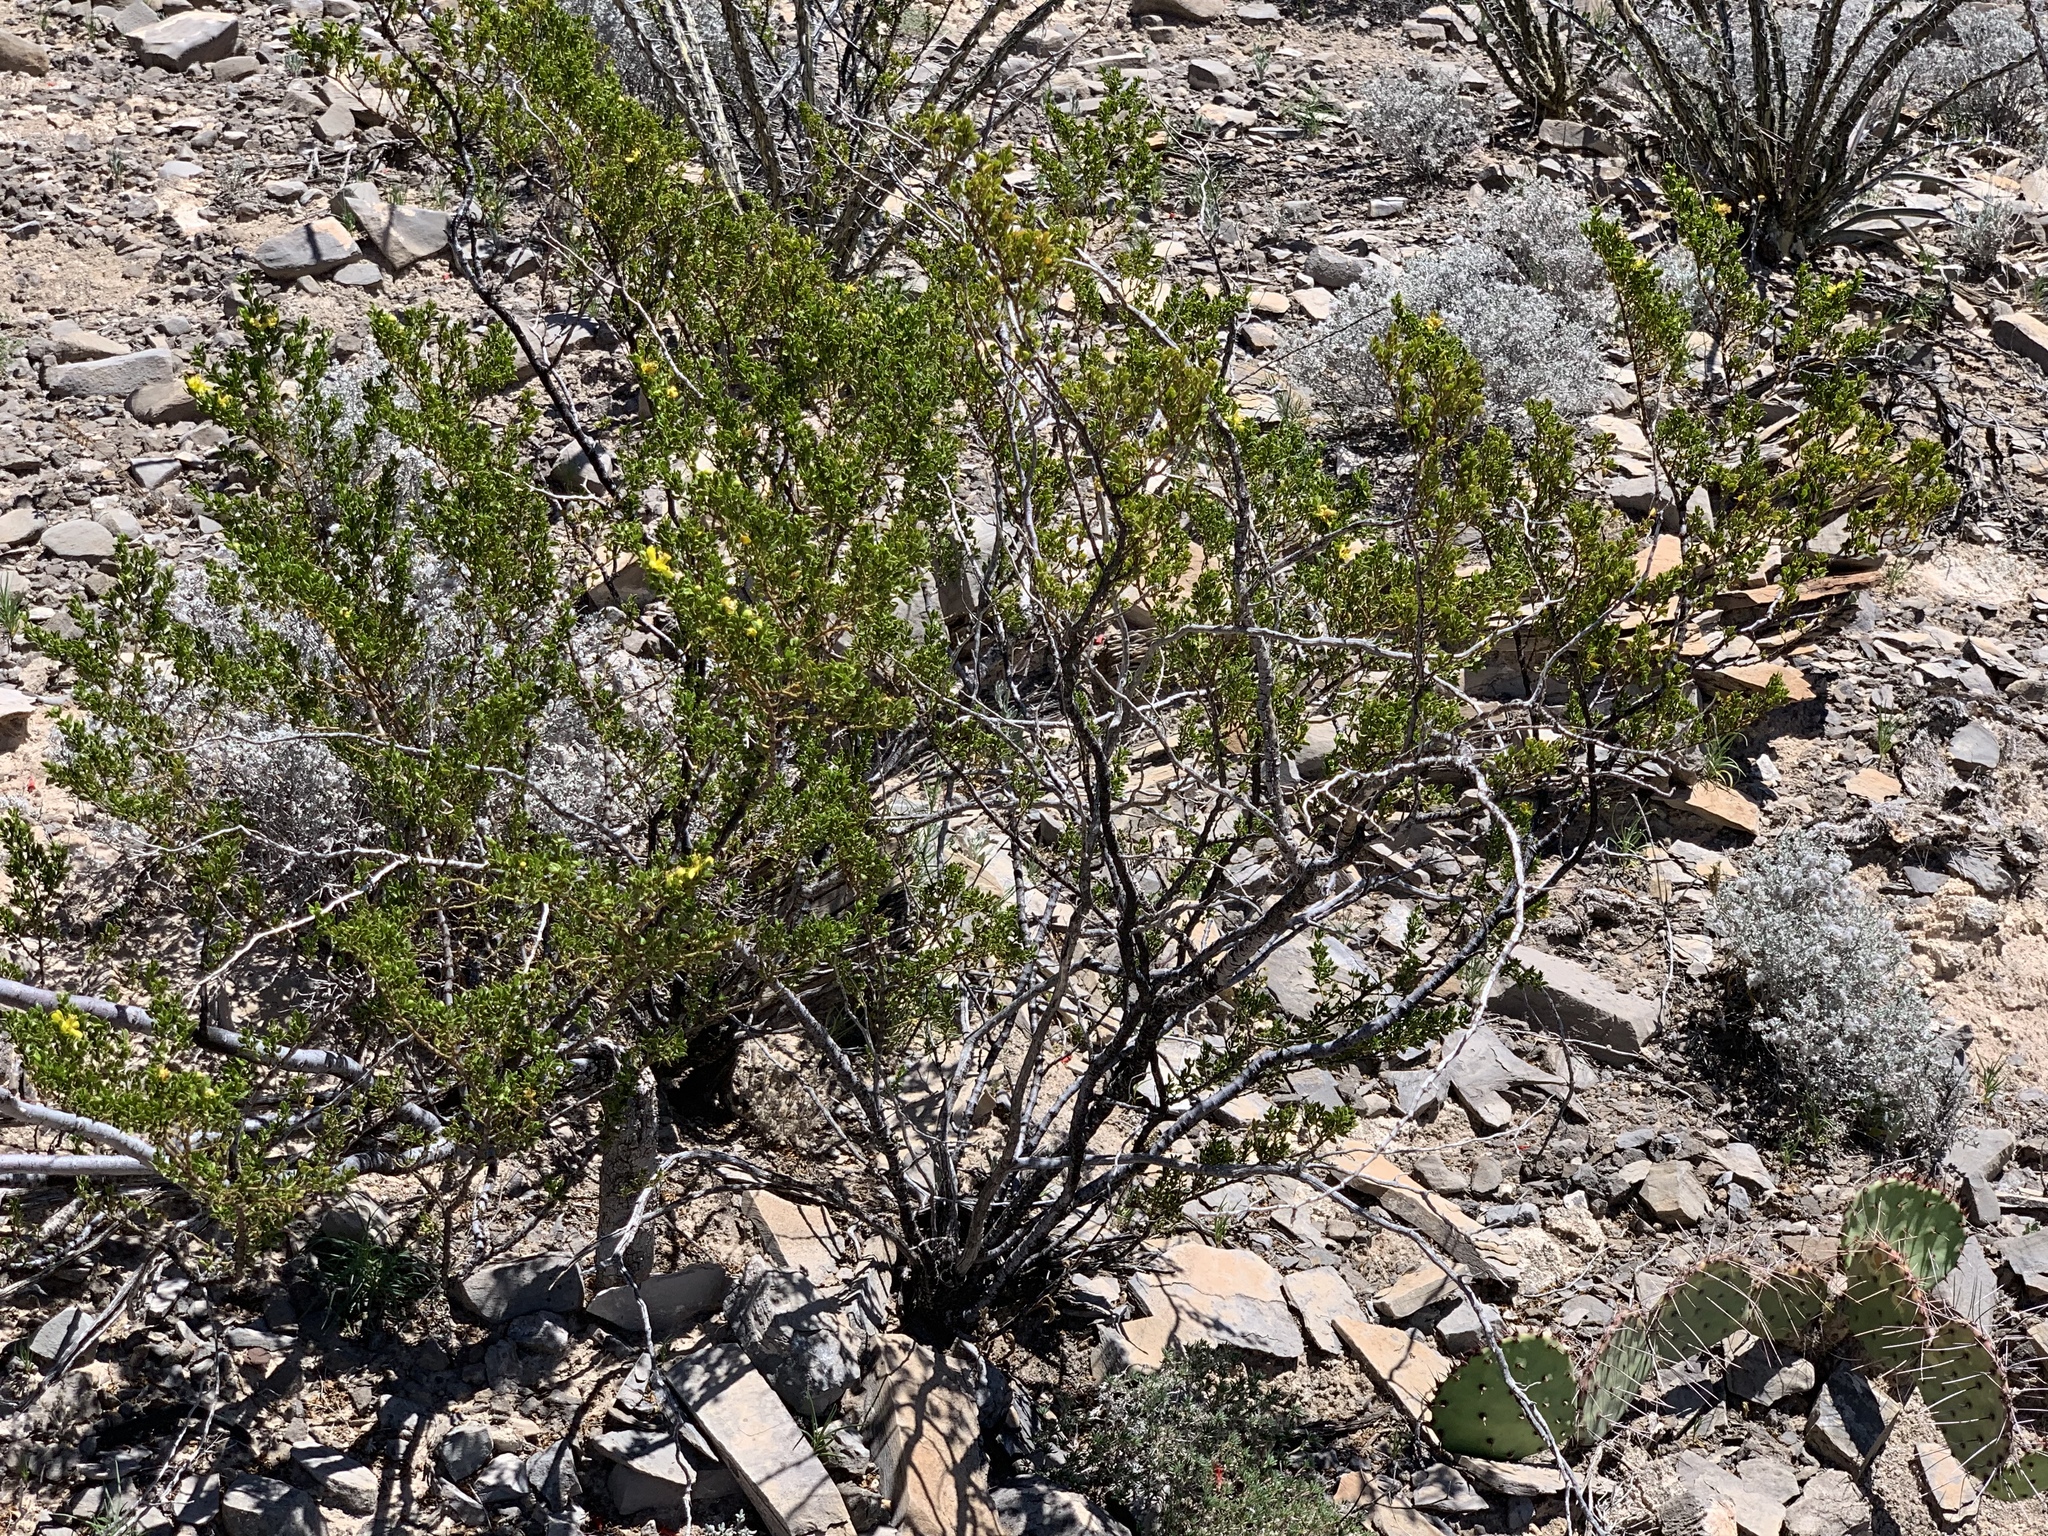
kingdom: Plantae
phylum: Tracheophyta
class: Magnoliopsida
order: Zygophyllales
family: Zygophyllaceae
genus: Larrea
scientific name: Larrea tridentata
